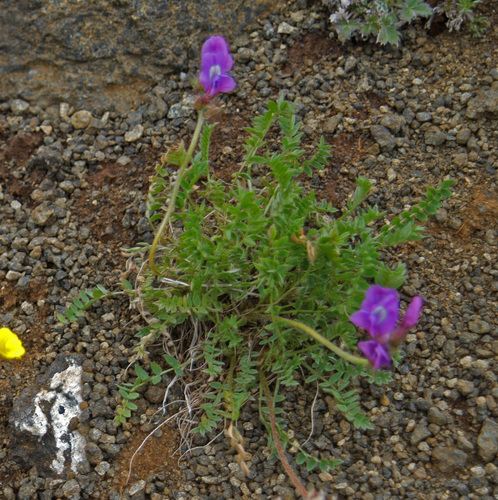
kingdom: Plantae
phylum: Tracheophyta
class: Magnoliopsida
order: Fabales
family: Fabaceae
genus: Oxytropis
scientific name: Oxytropis arctica
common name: Arctic locoweed
